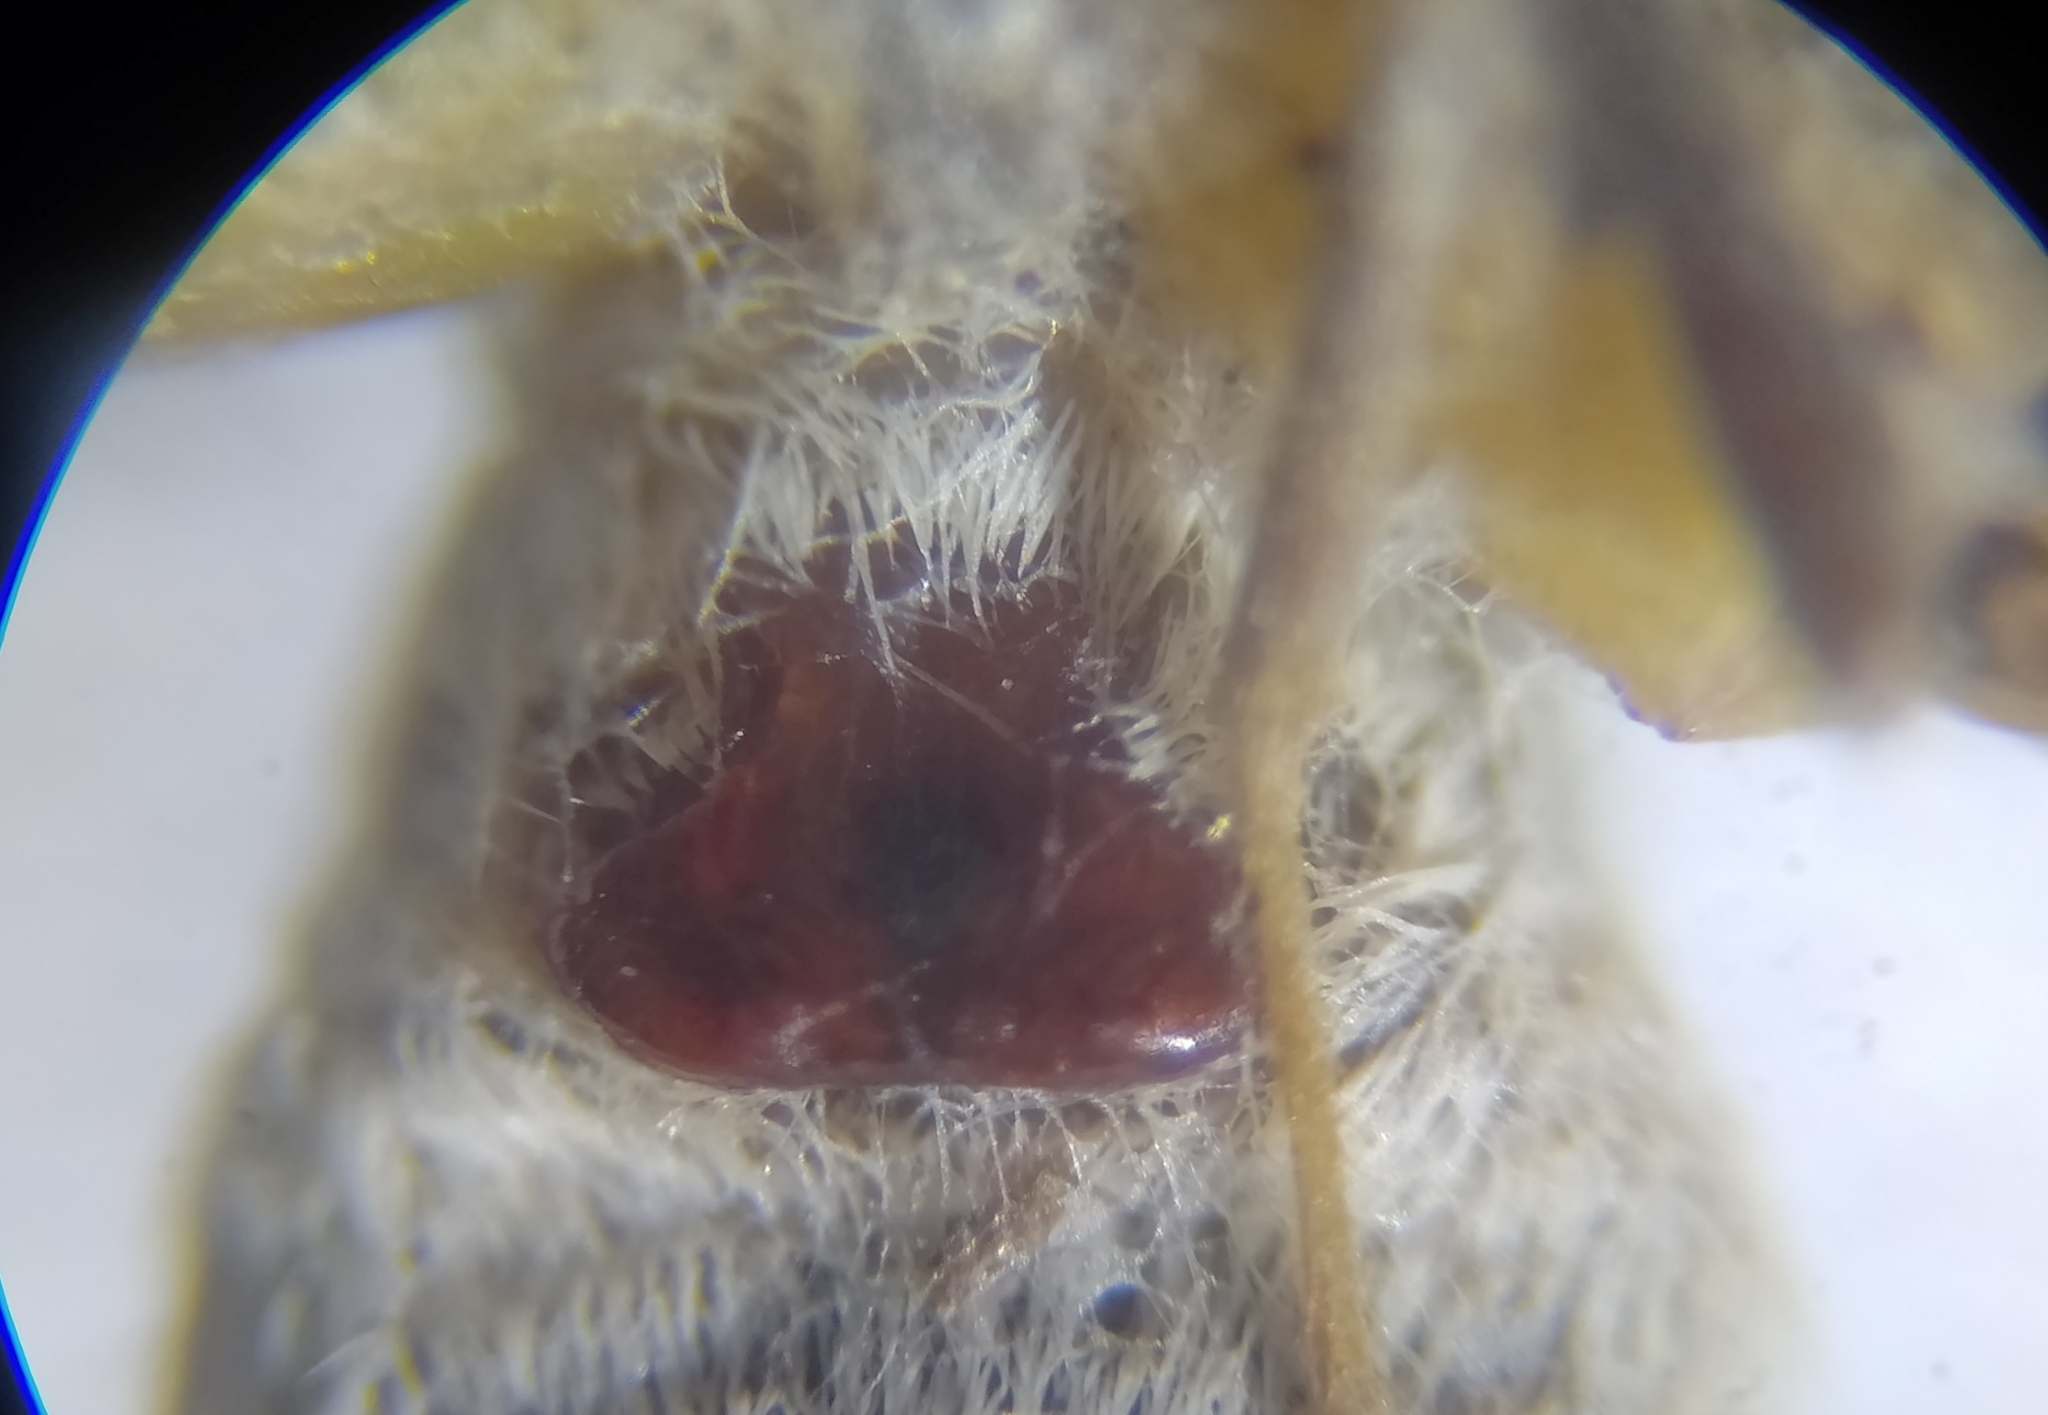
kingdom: Animalia
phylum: Arthropoda
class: Arachnida
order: Araneae
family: Lycosidae
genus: Pardosa
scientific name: Pardosa palustris
